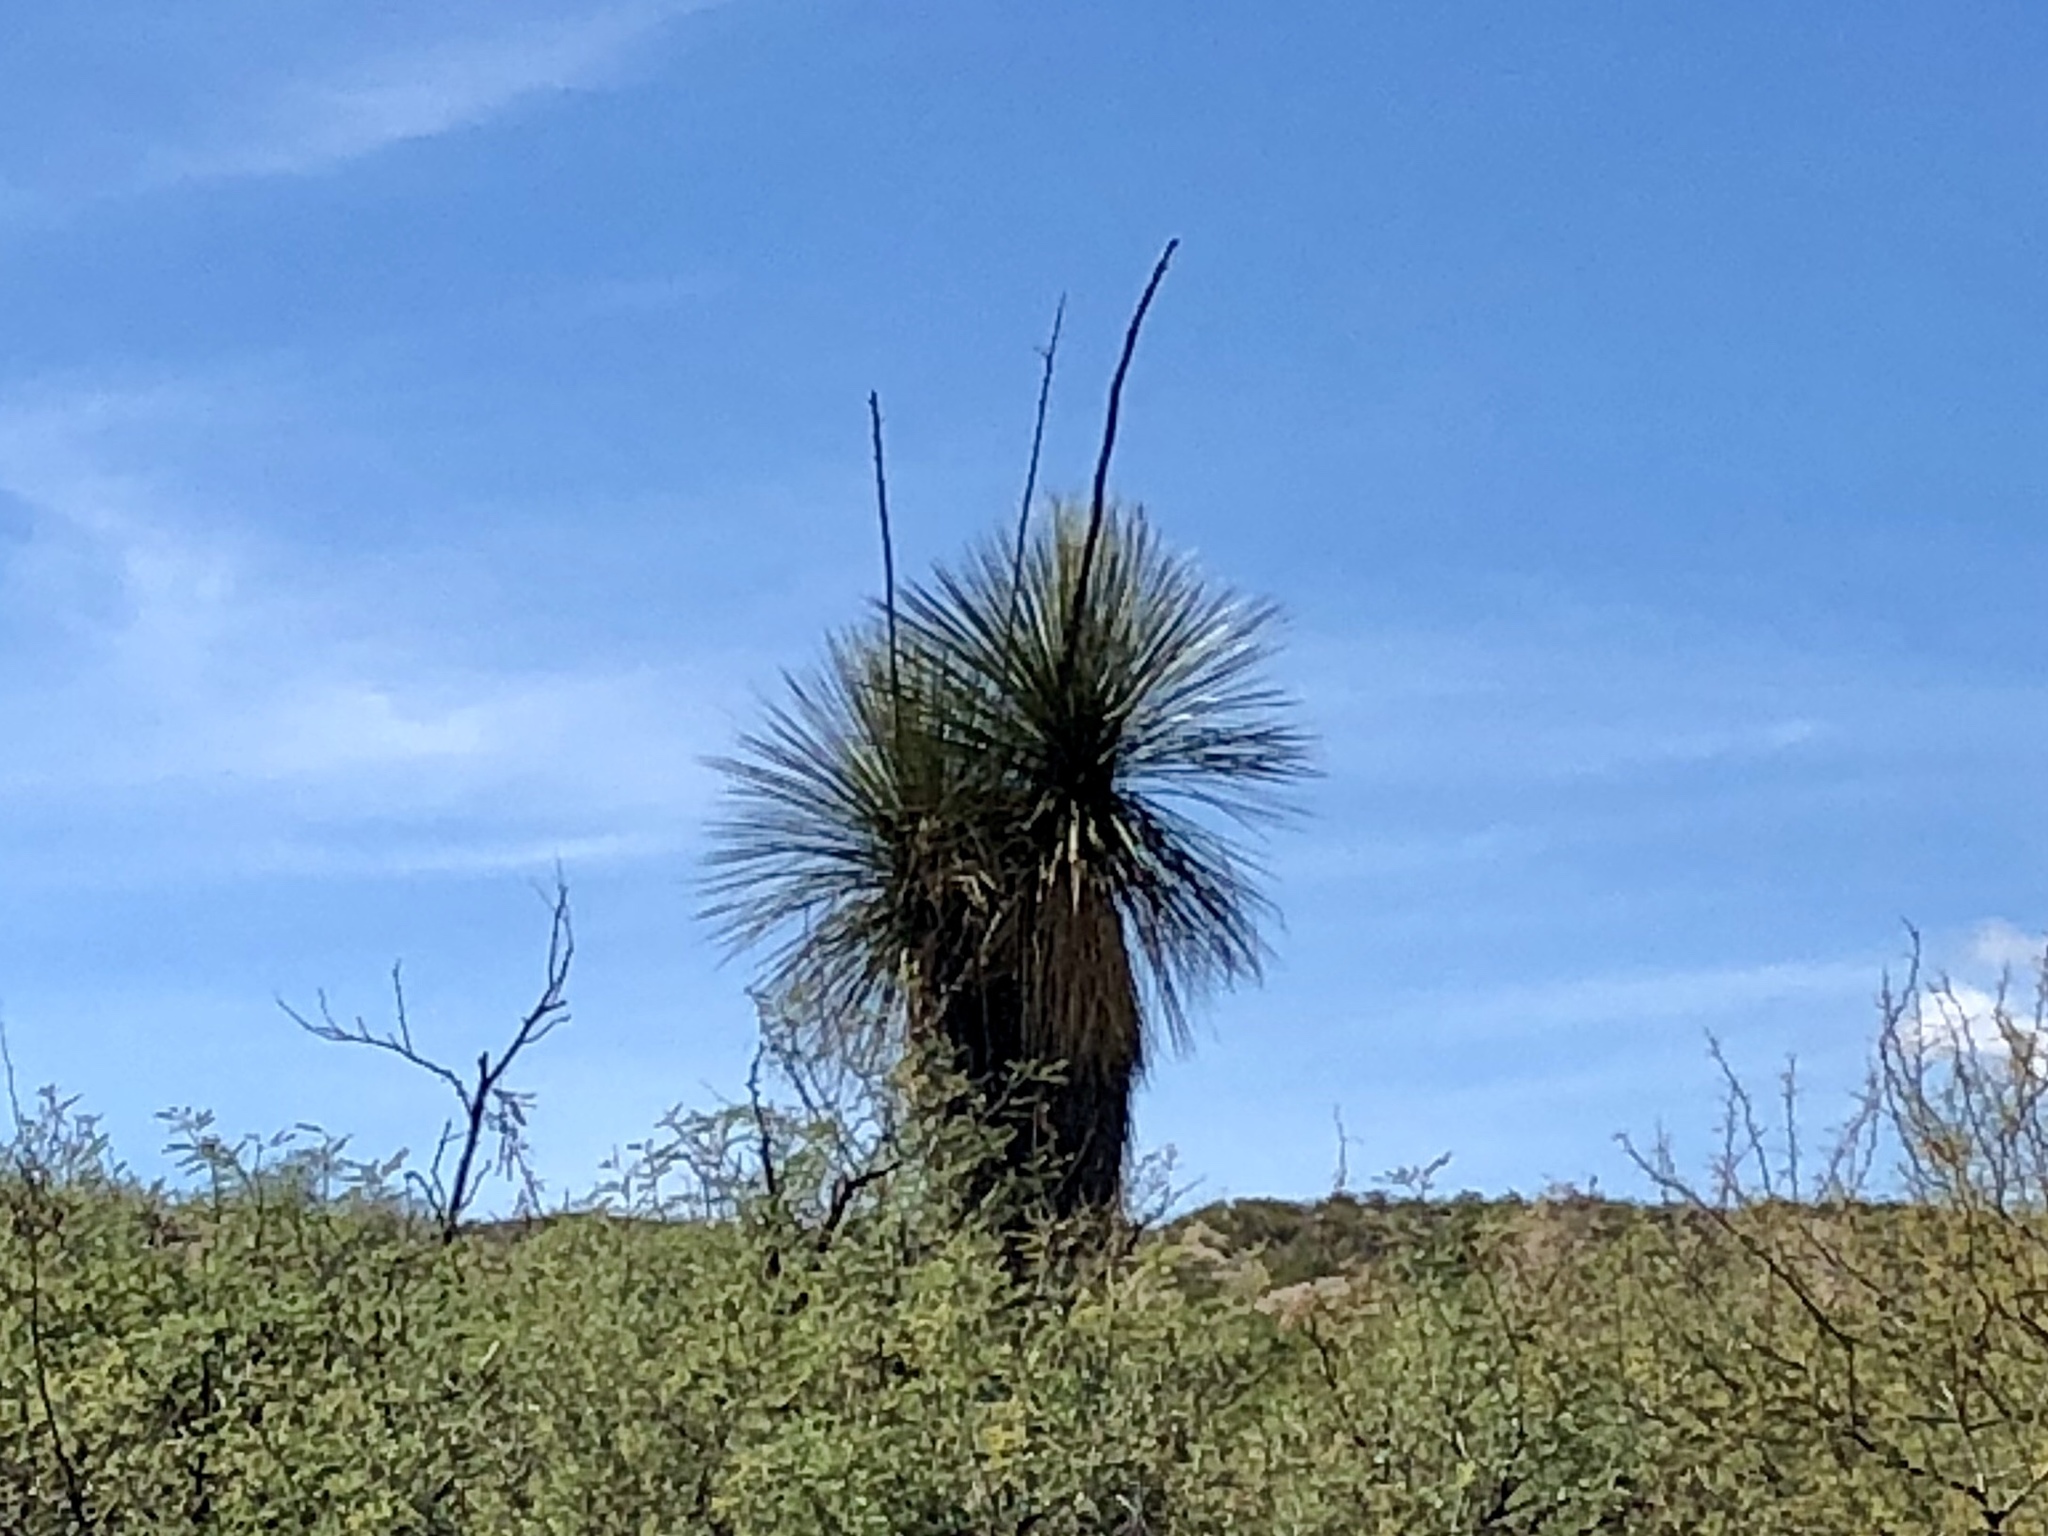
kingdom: Plantae
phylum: Tracheophyta
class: Liliopsida
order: Asparagales
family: Asparagaceae
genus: Yucca
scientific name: Yucca elata
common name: Palmella
